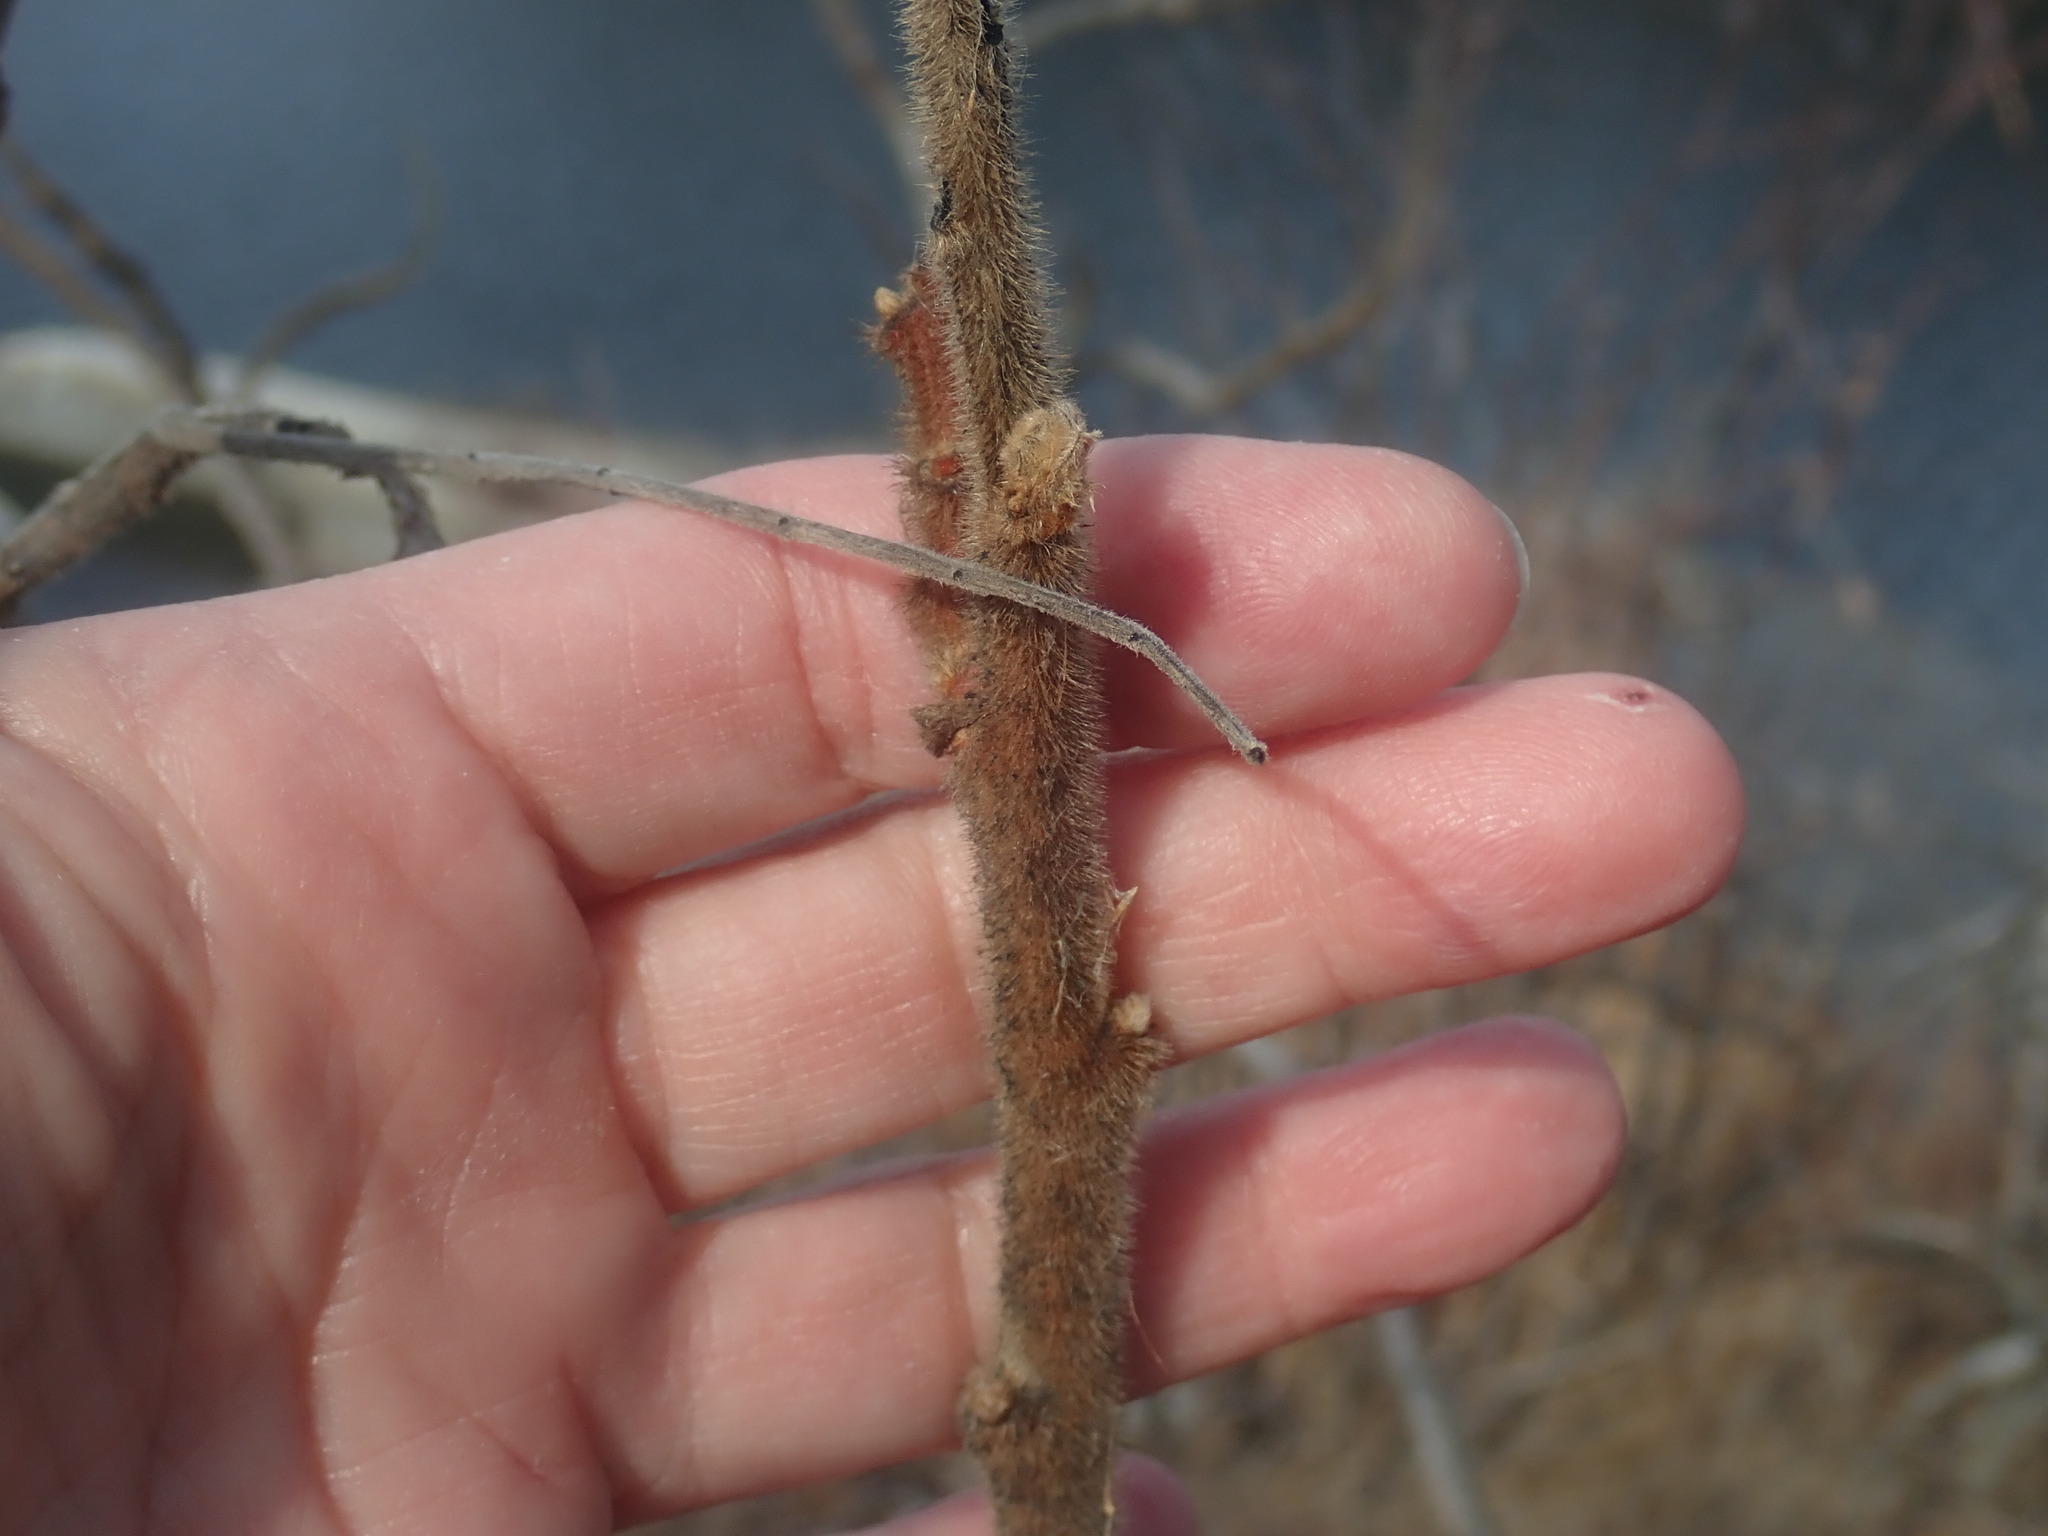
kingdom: Plantae
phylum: Tracheophyta
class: Magnoliopsida
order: Sapindales
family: Anacardiaceae
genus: Rhus
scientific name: Rhus typhina
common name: Staghorn sumac
